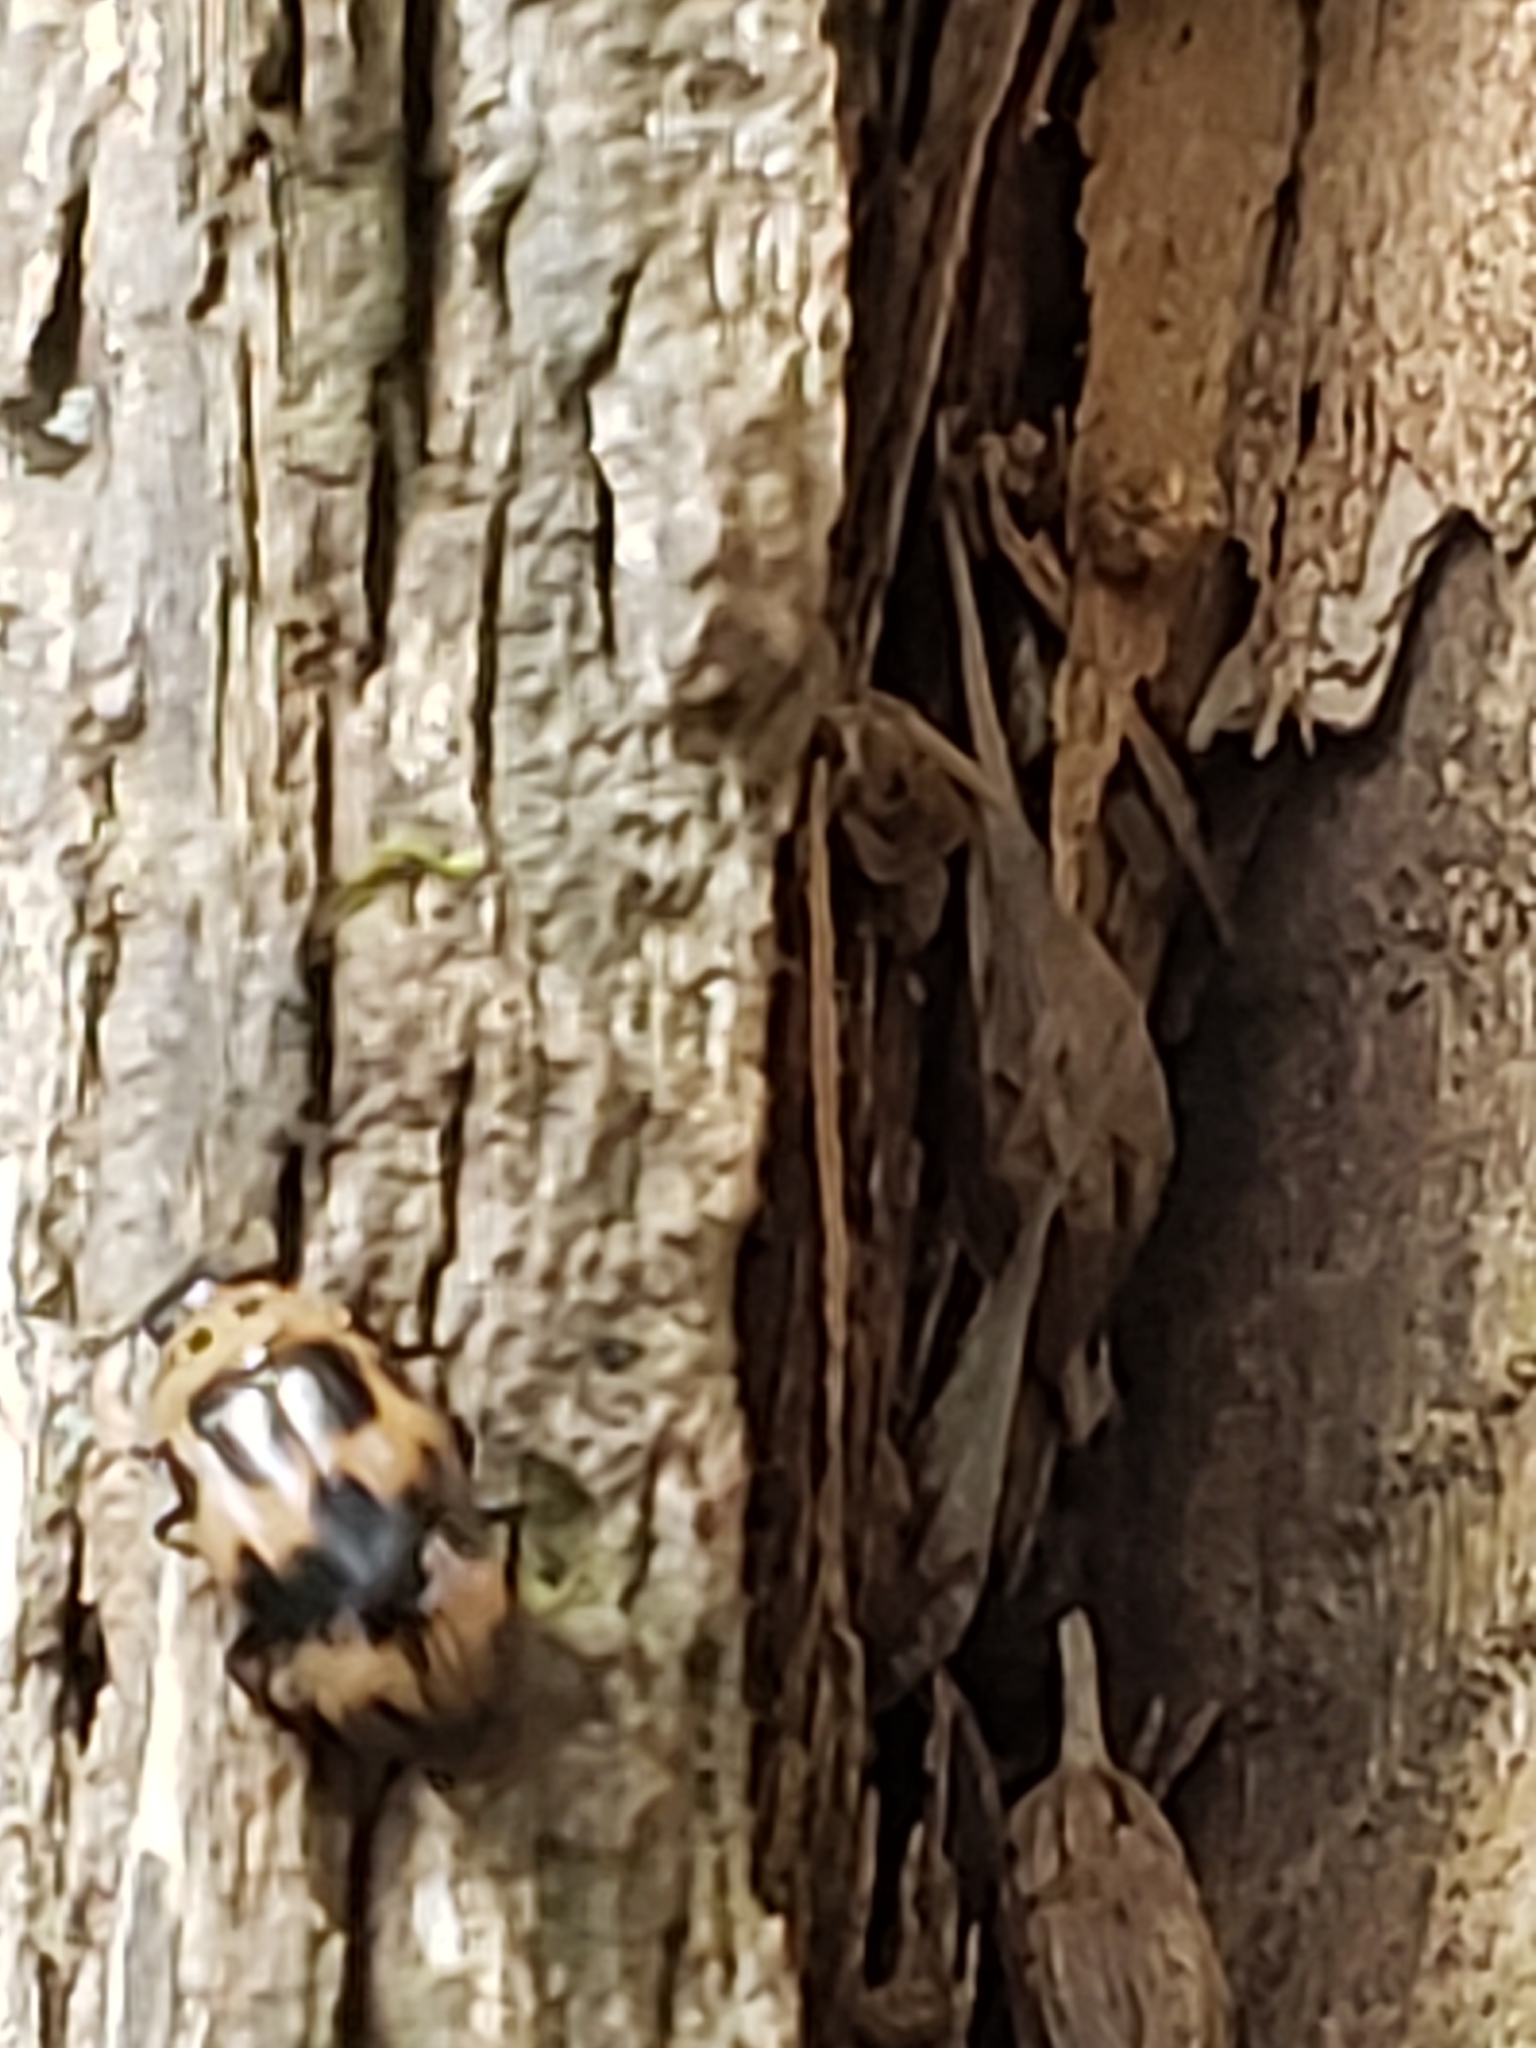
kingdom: Animalia
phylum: Arthropoda
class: Insecta
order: Coleoptera
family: Erotylidae
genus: Ischyrus
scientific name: Ischyrus quadripunctatus
